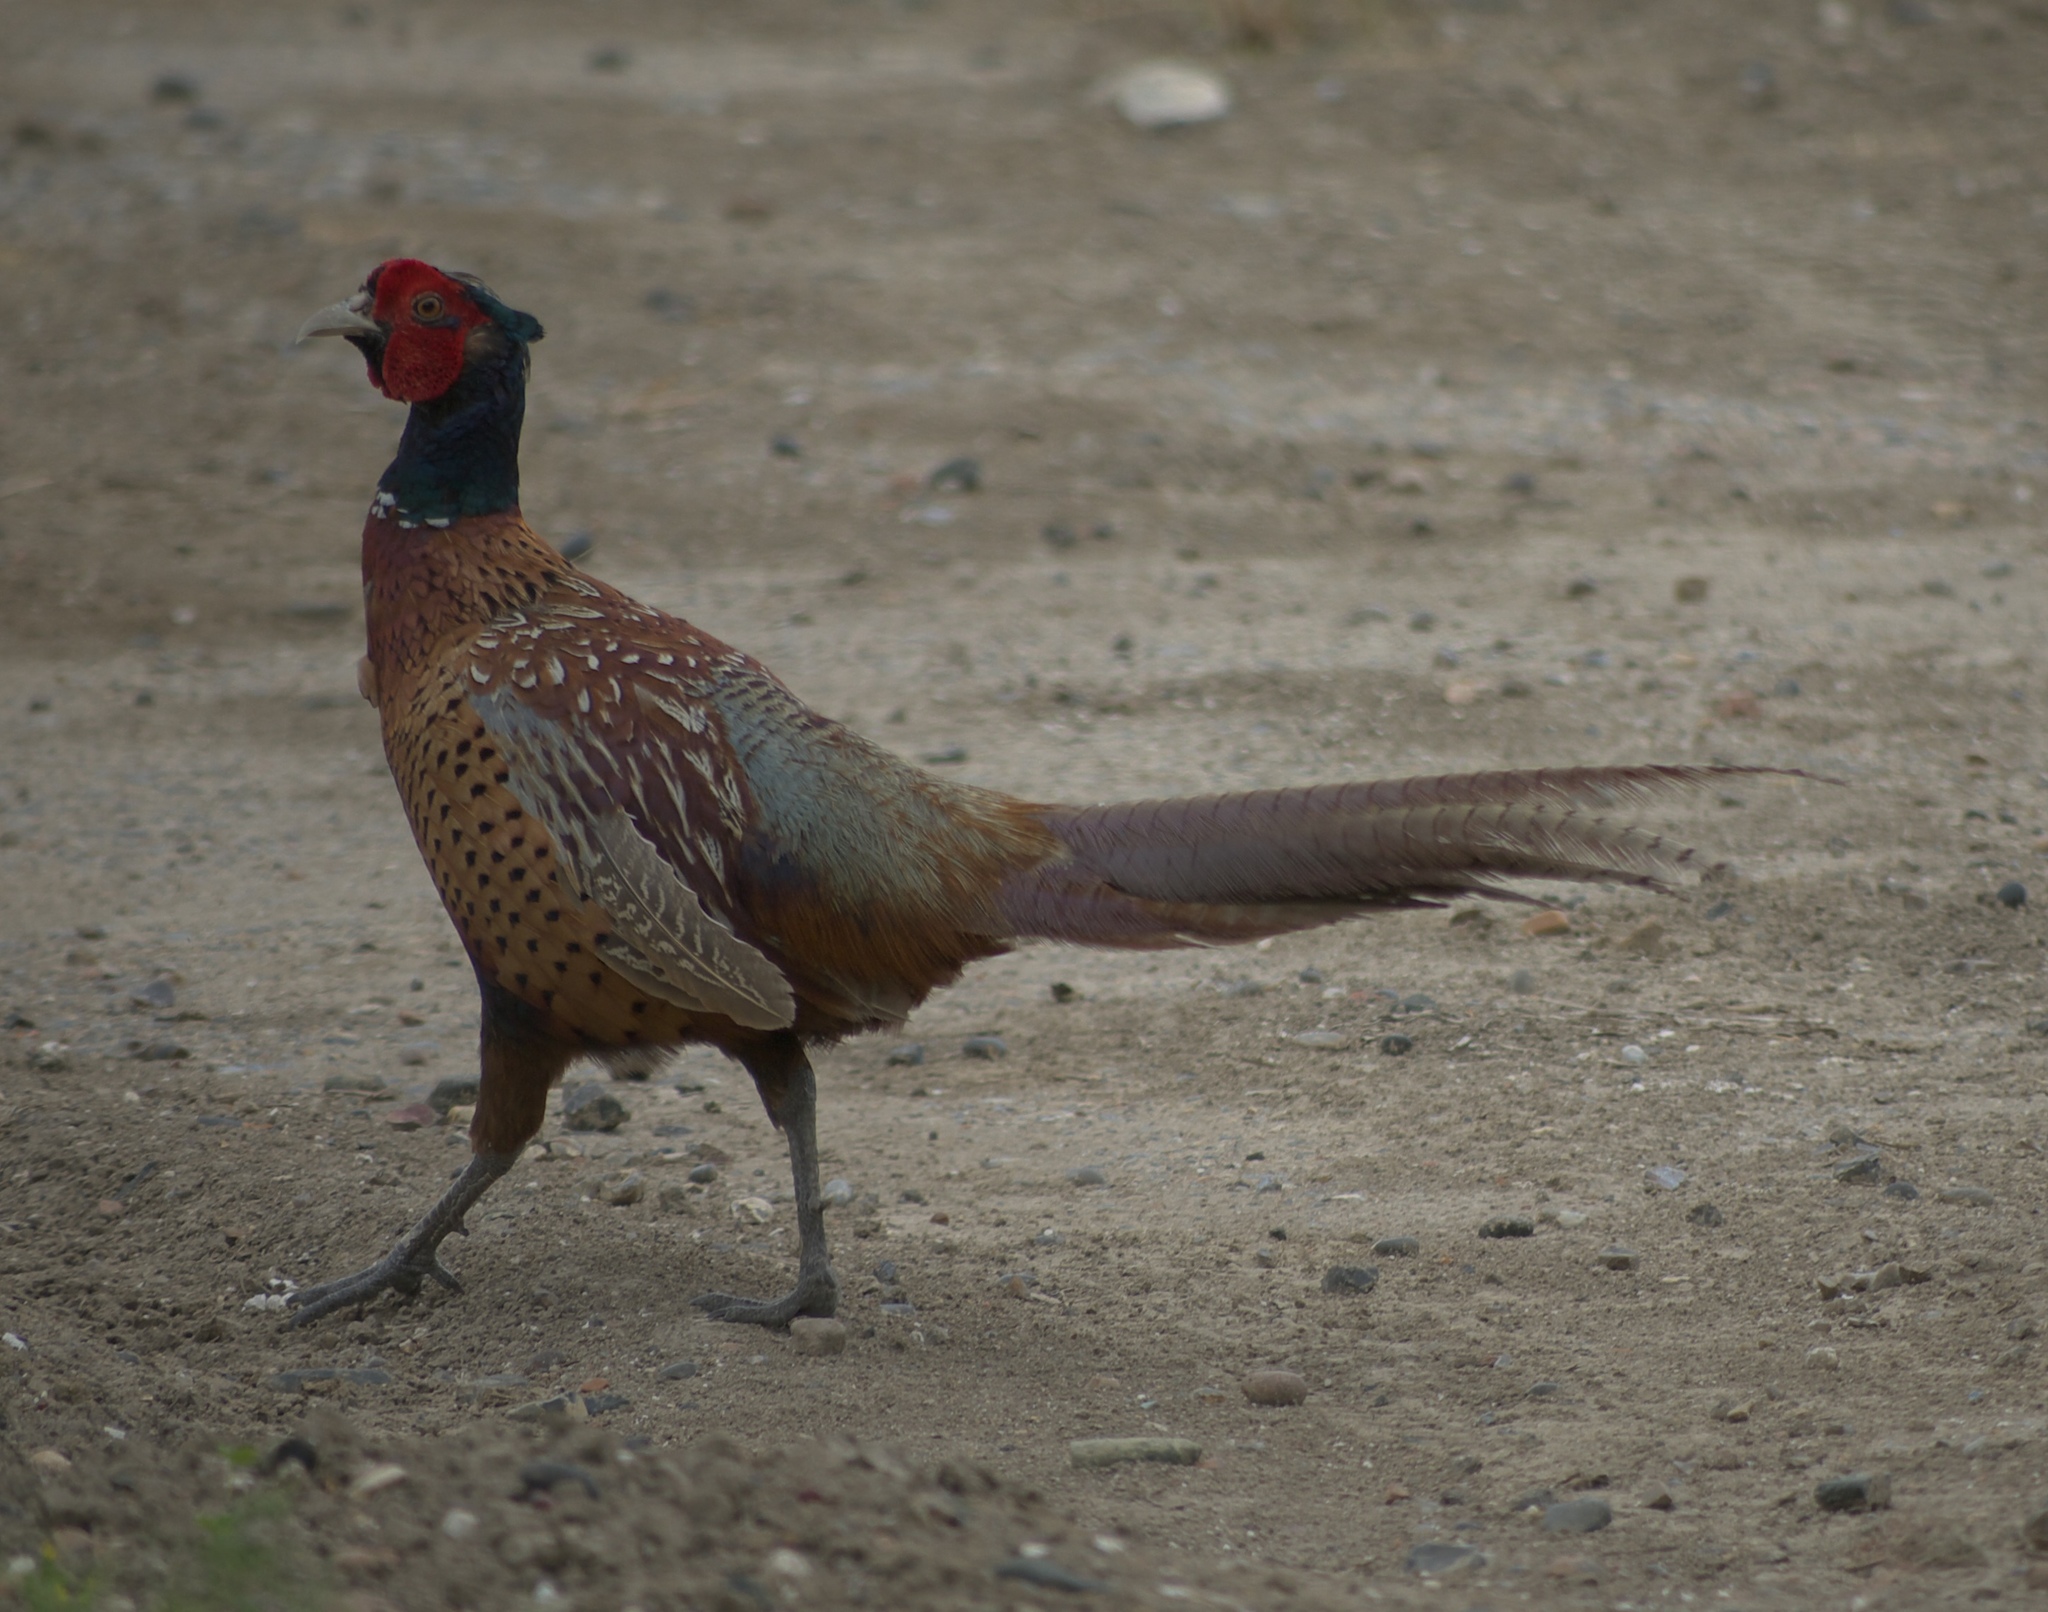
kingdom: Animalia
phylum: Chordata
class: Aves
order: Galliformes
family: Phasianidae
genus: Phasianus
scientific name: Phasianus colchicus
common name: Common pheasant
